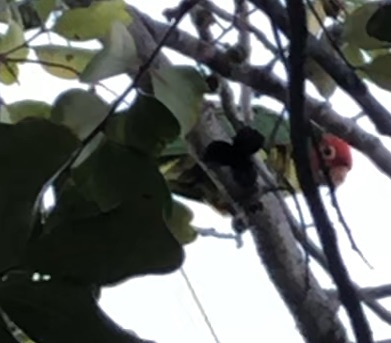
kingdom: Animalia
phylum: Chordata
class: Aves
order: Psittaciformes
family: Psittacidae
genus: Aratinga
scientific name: Aratinga erythrogenys
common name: Red-masked parakeet
